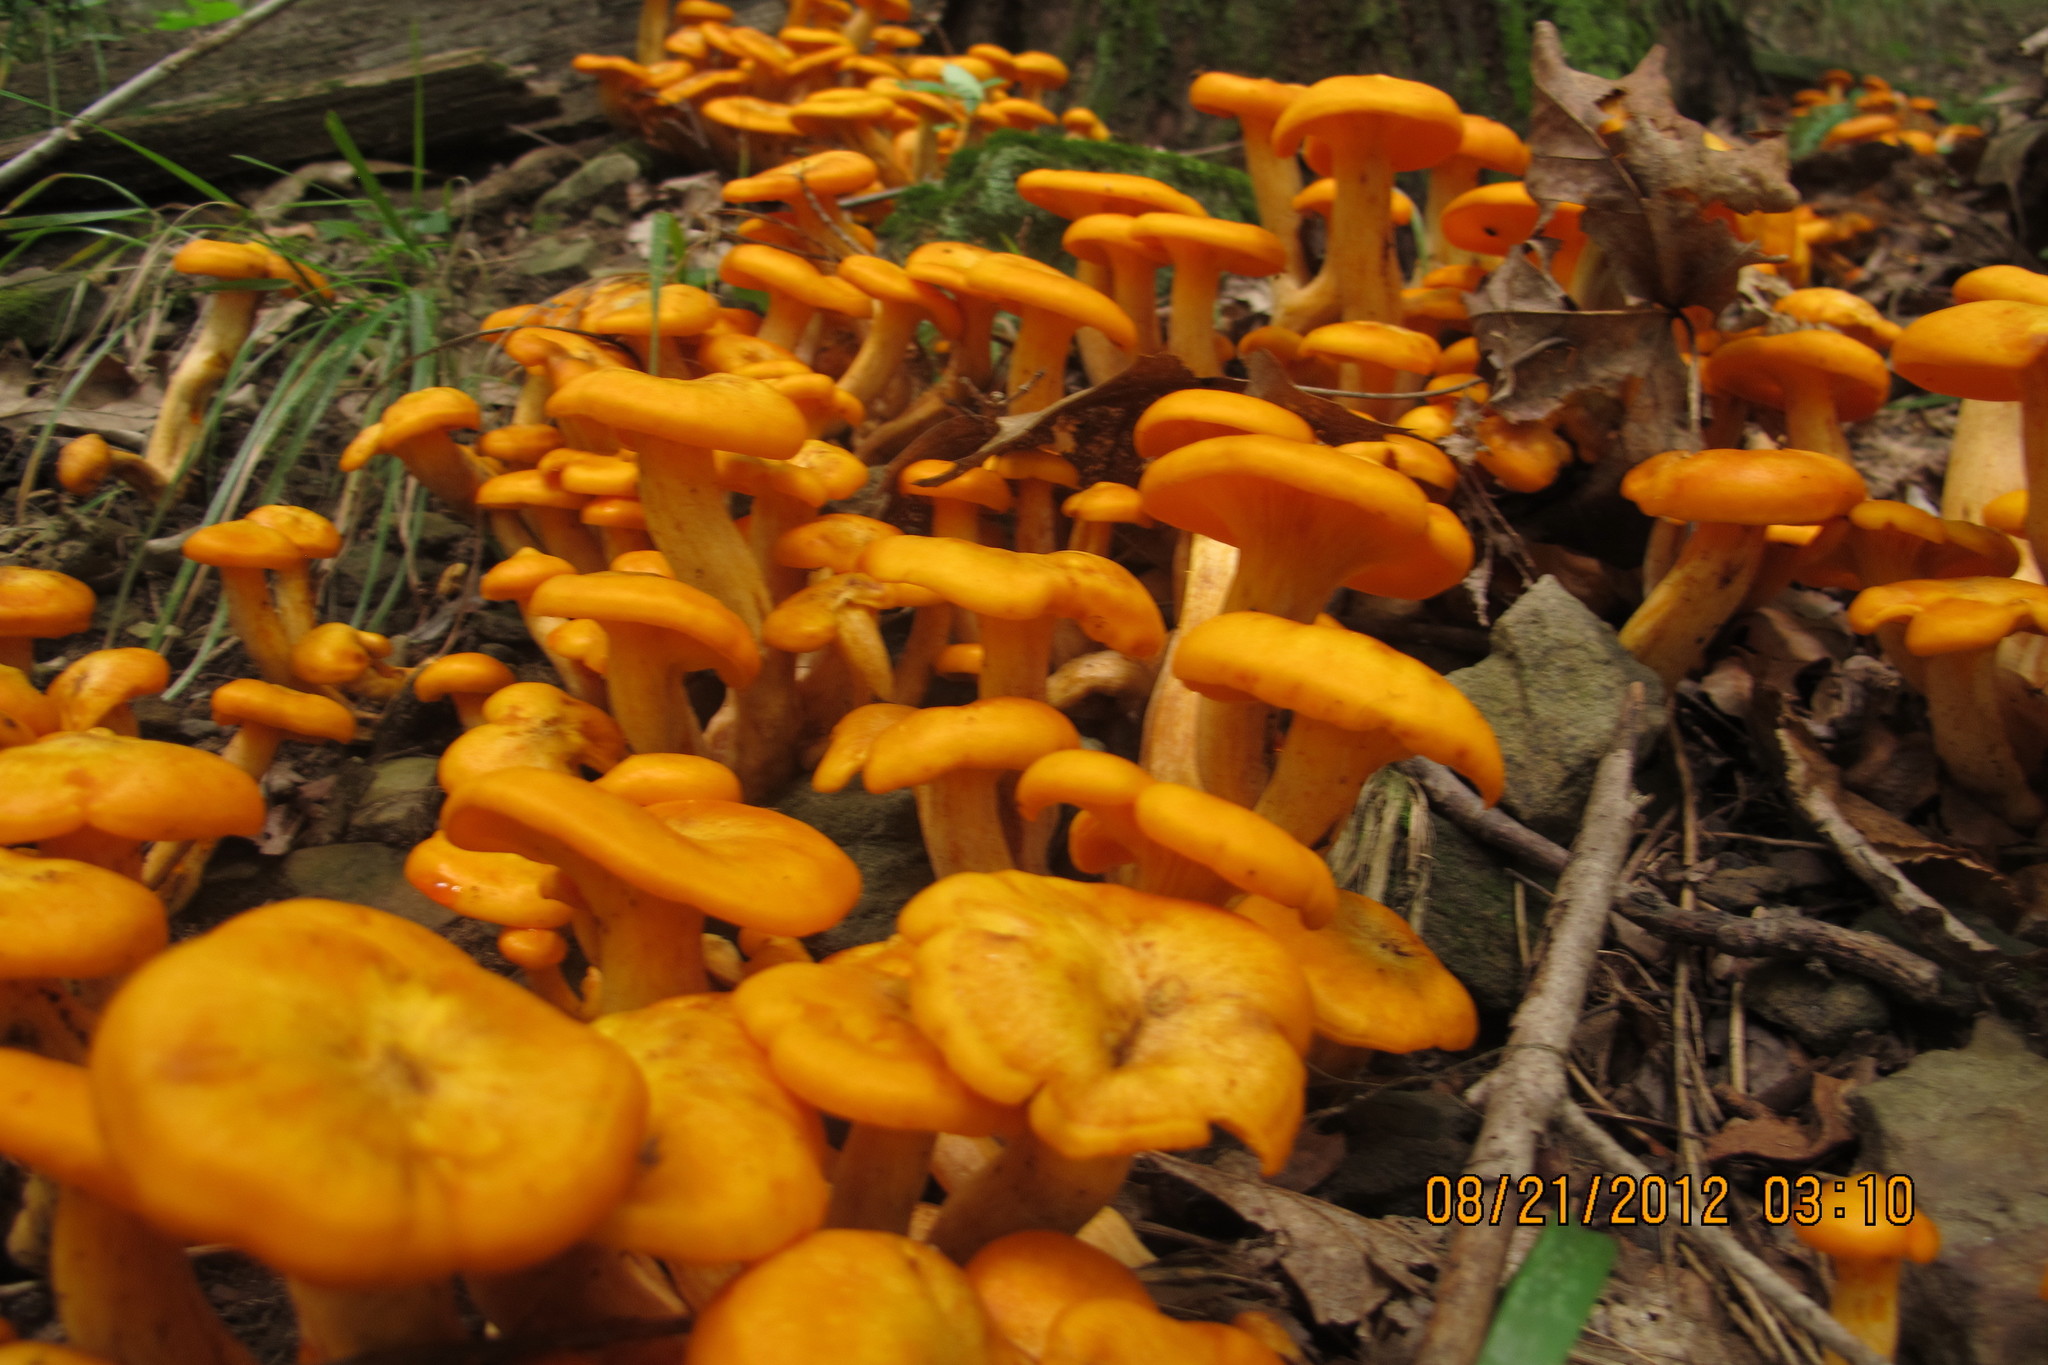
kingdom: Fungi
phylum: Basidiomycota
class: Agaricomycetes
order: Agaricales
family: Omphalotaceae
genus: Omphalotus
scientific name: Omphalotus illudens
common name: Jack o lantern
